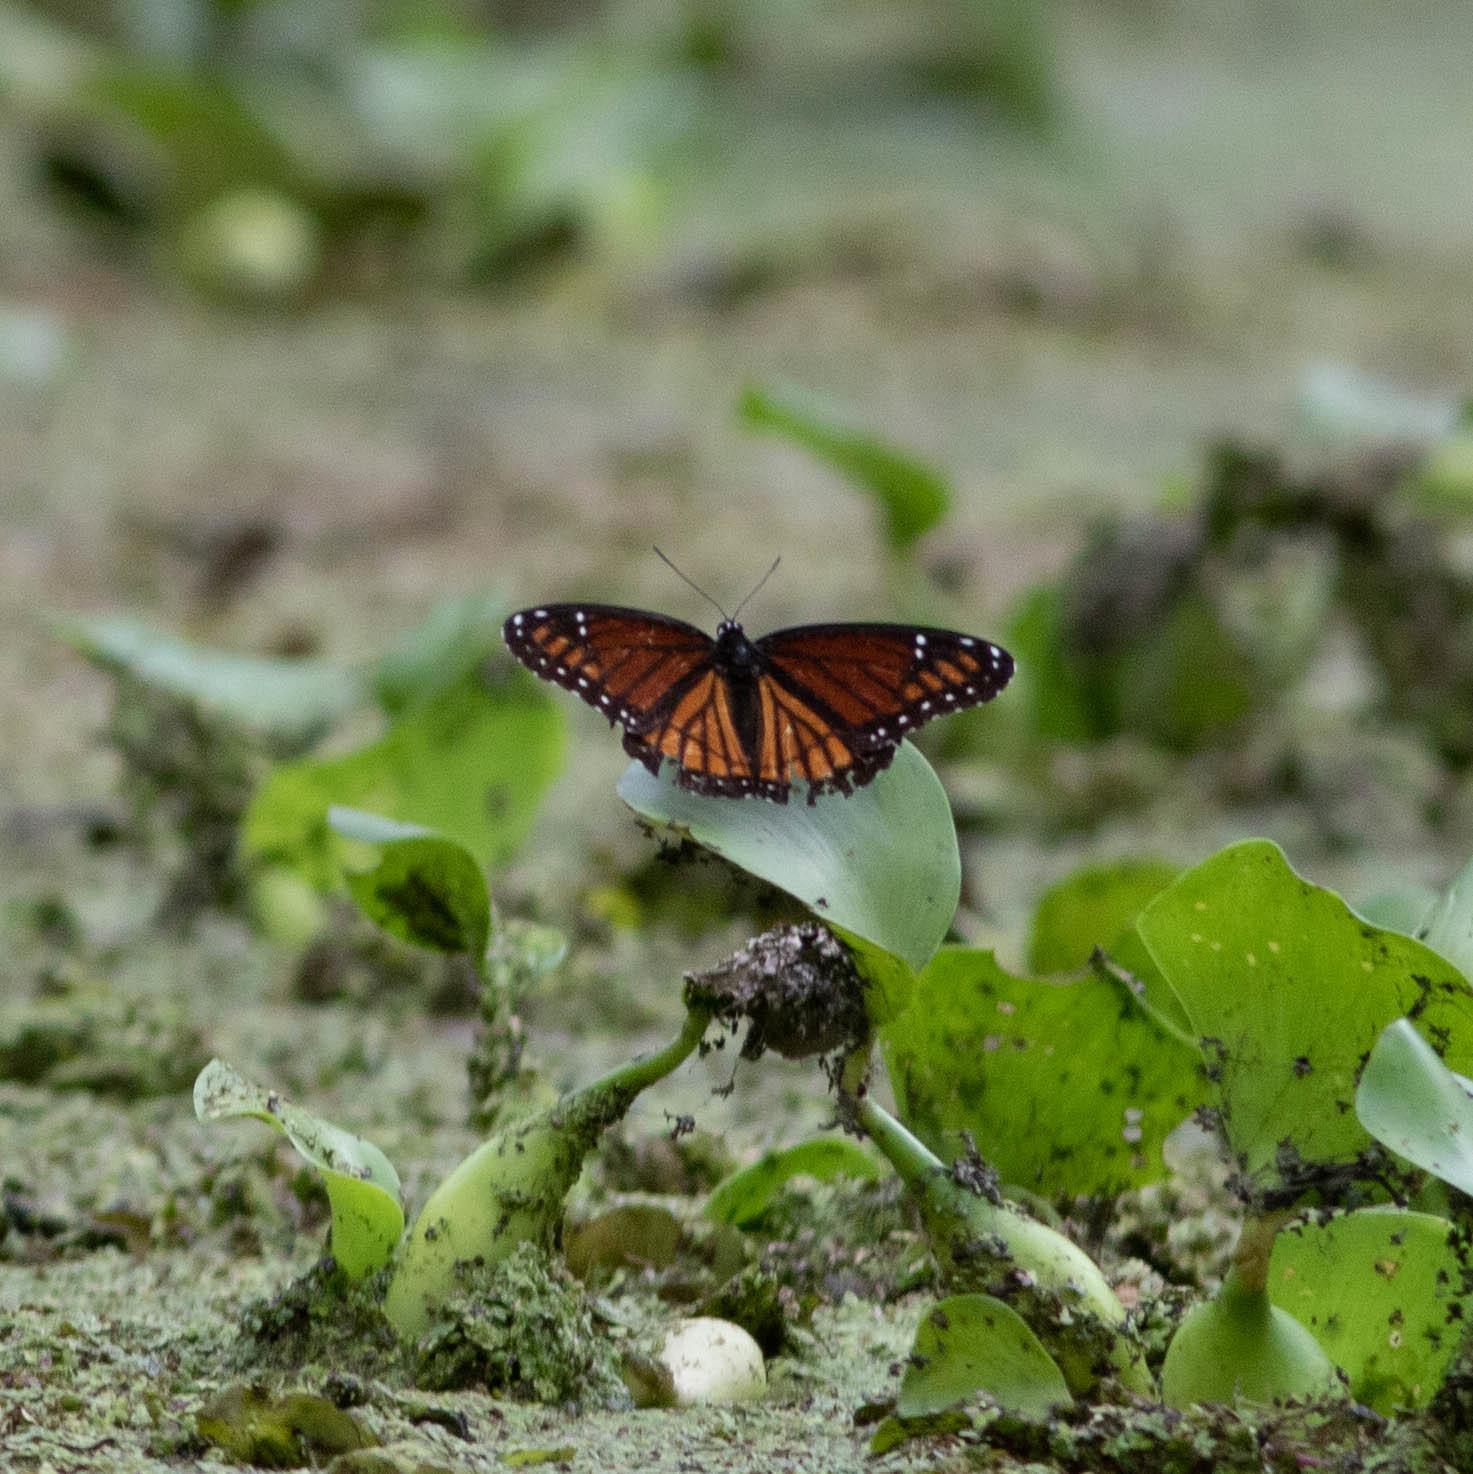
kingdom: Animalia
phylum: Arthropoda
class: Insecta
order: Lepidoptera
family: Nymphalidae
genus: Limenitis
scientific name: Limenitis archippus
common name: Viceroy
